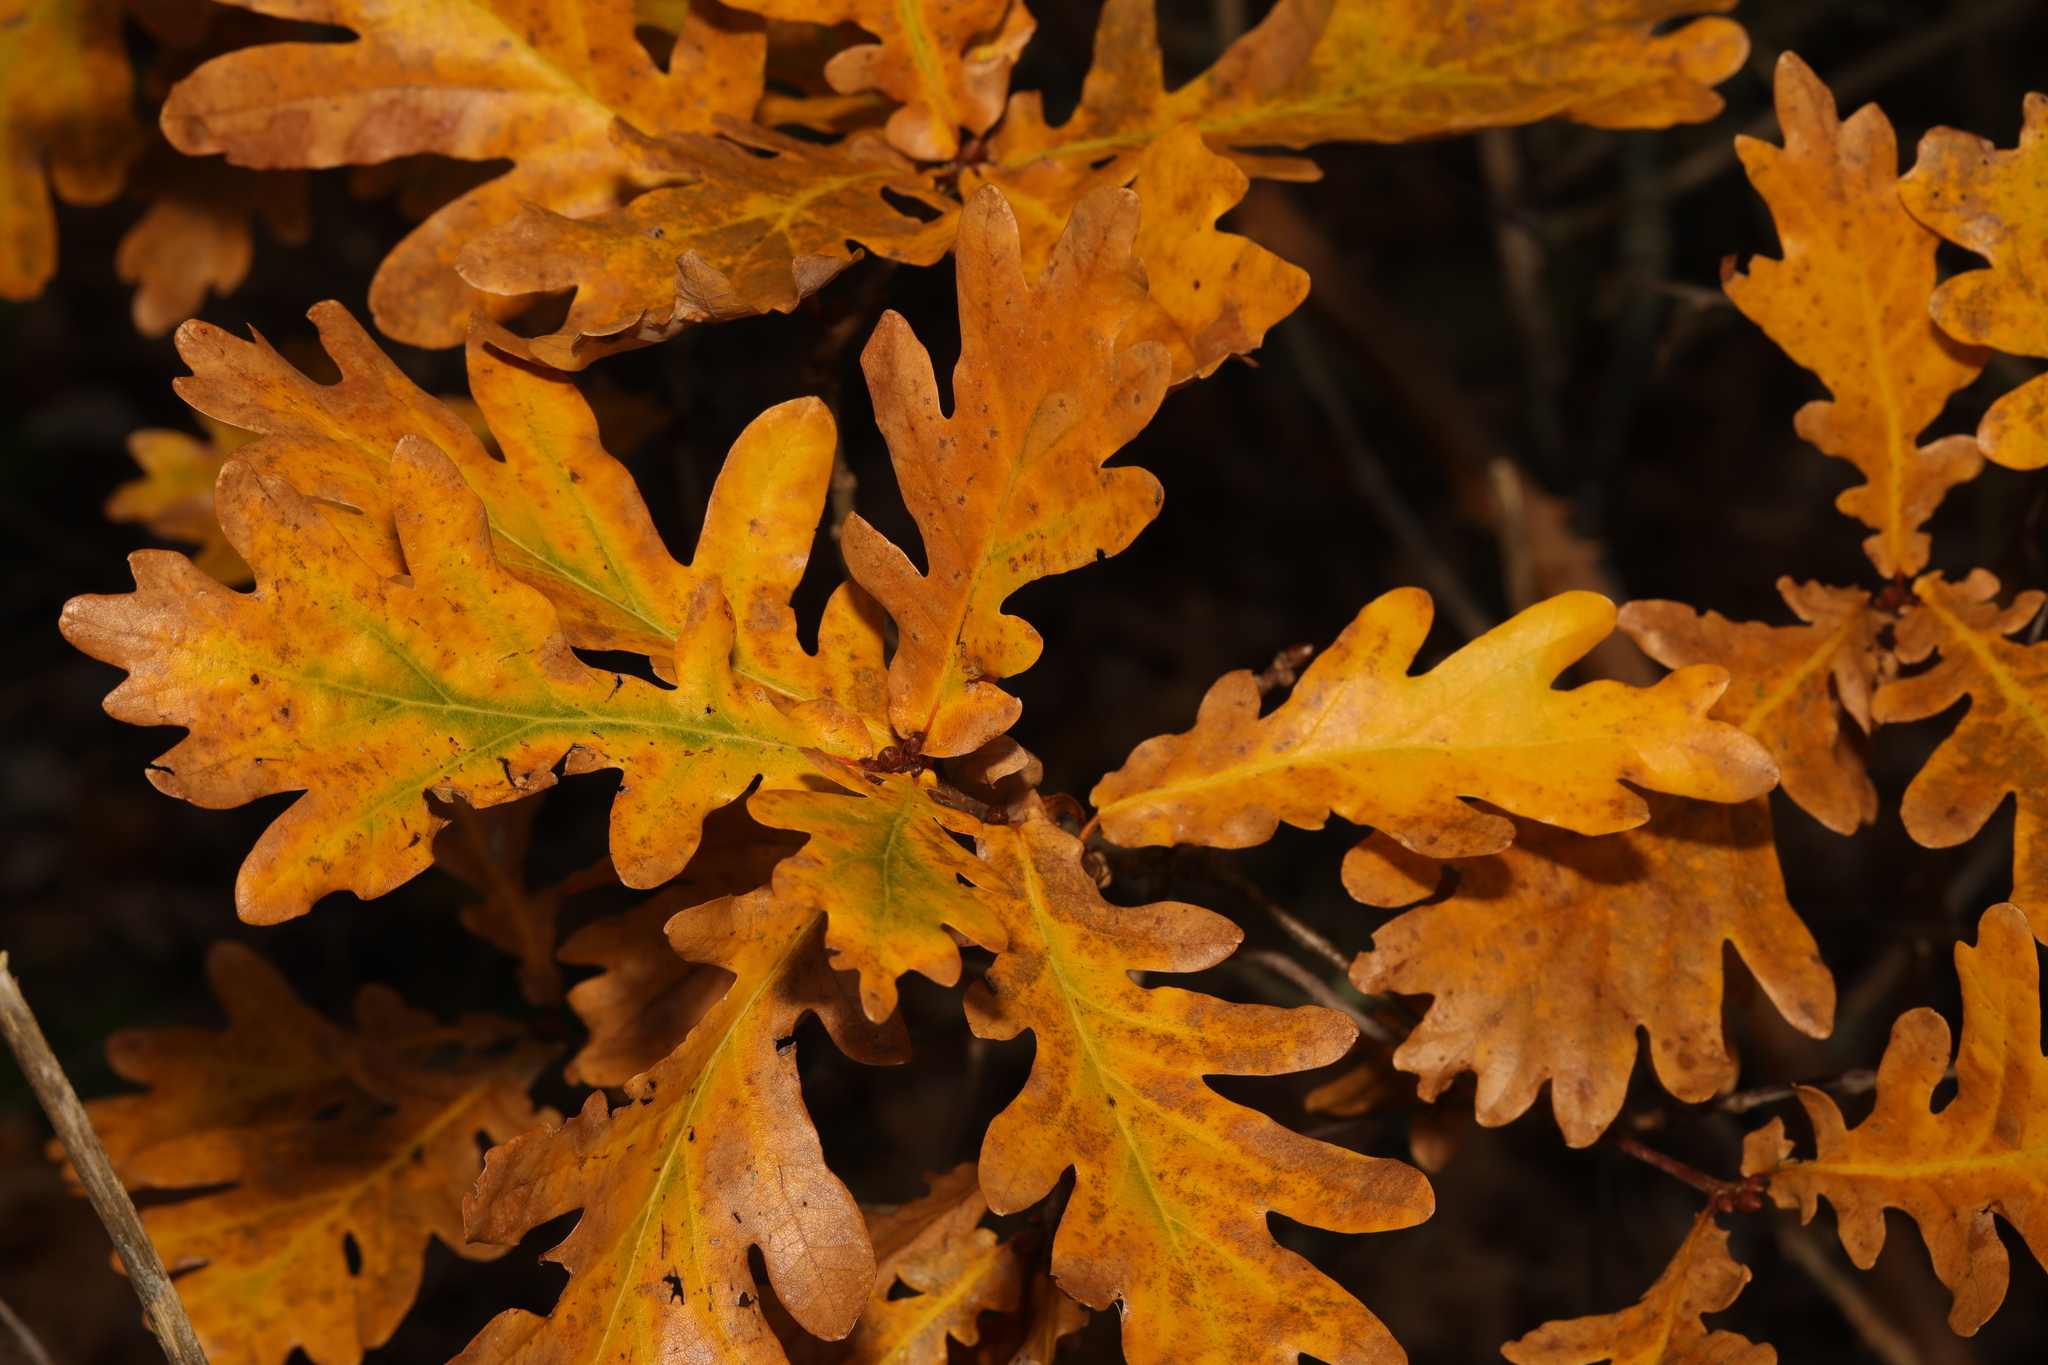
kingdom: Plantae
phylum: Tracheophyta
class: Magnoliopsida
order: Fagales
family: Fagaceae
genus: Quercus
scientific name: Quercus robur
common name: Pedunculate oak
